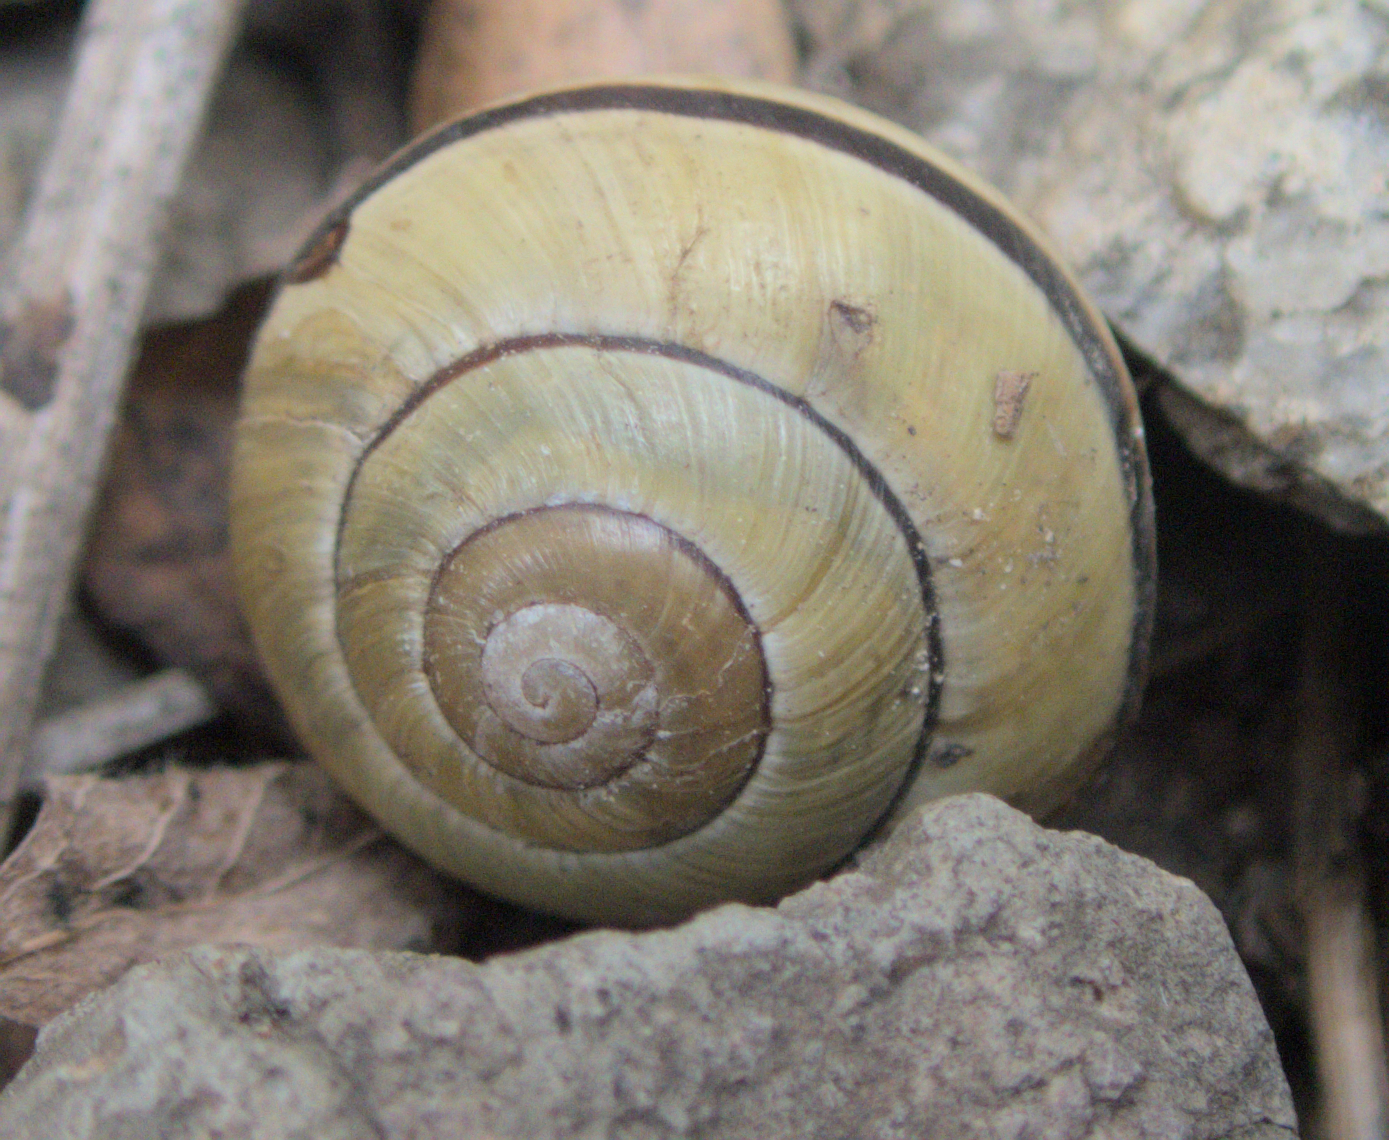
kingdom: Animalia
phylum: Mollusca
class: Gastropoda
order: Stylommatophora
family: Helicidae
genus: Cepaea
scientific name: Cepaea nemoralis
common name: Grovesnail
